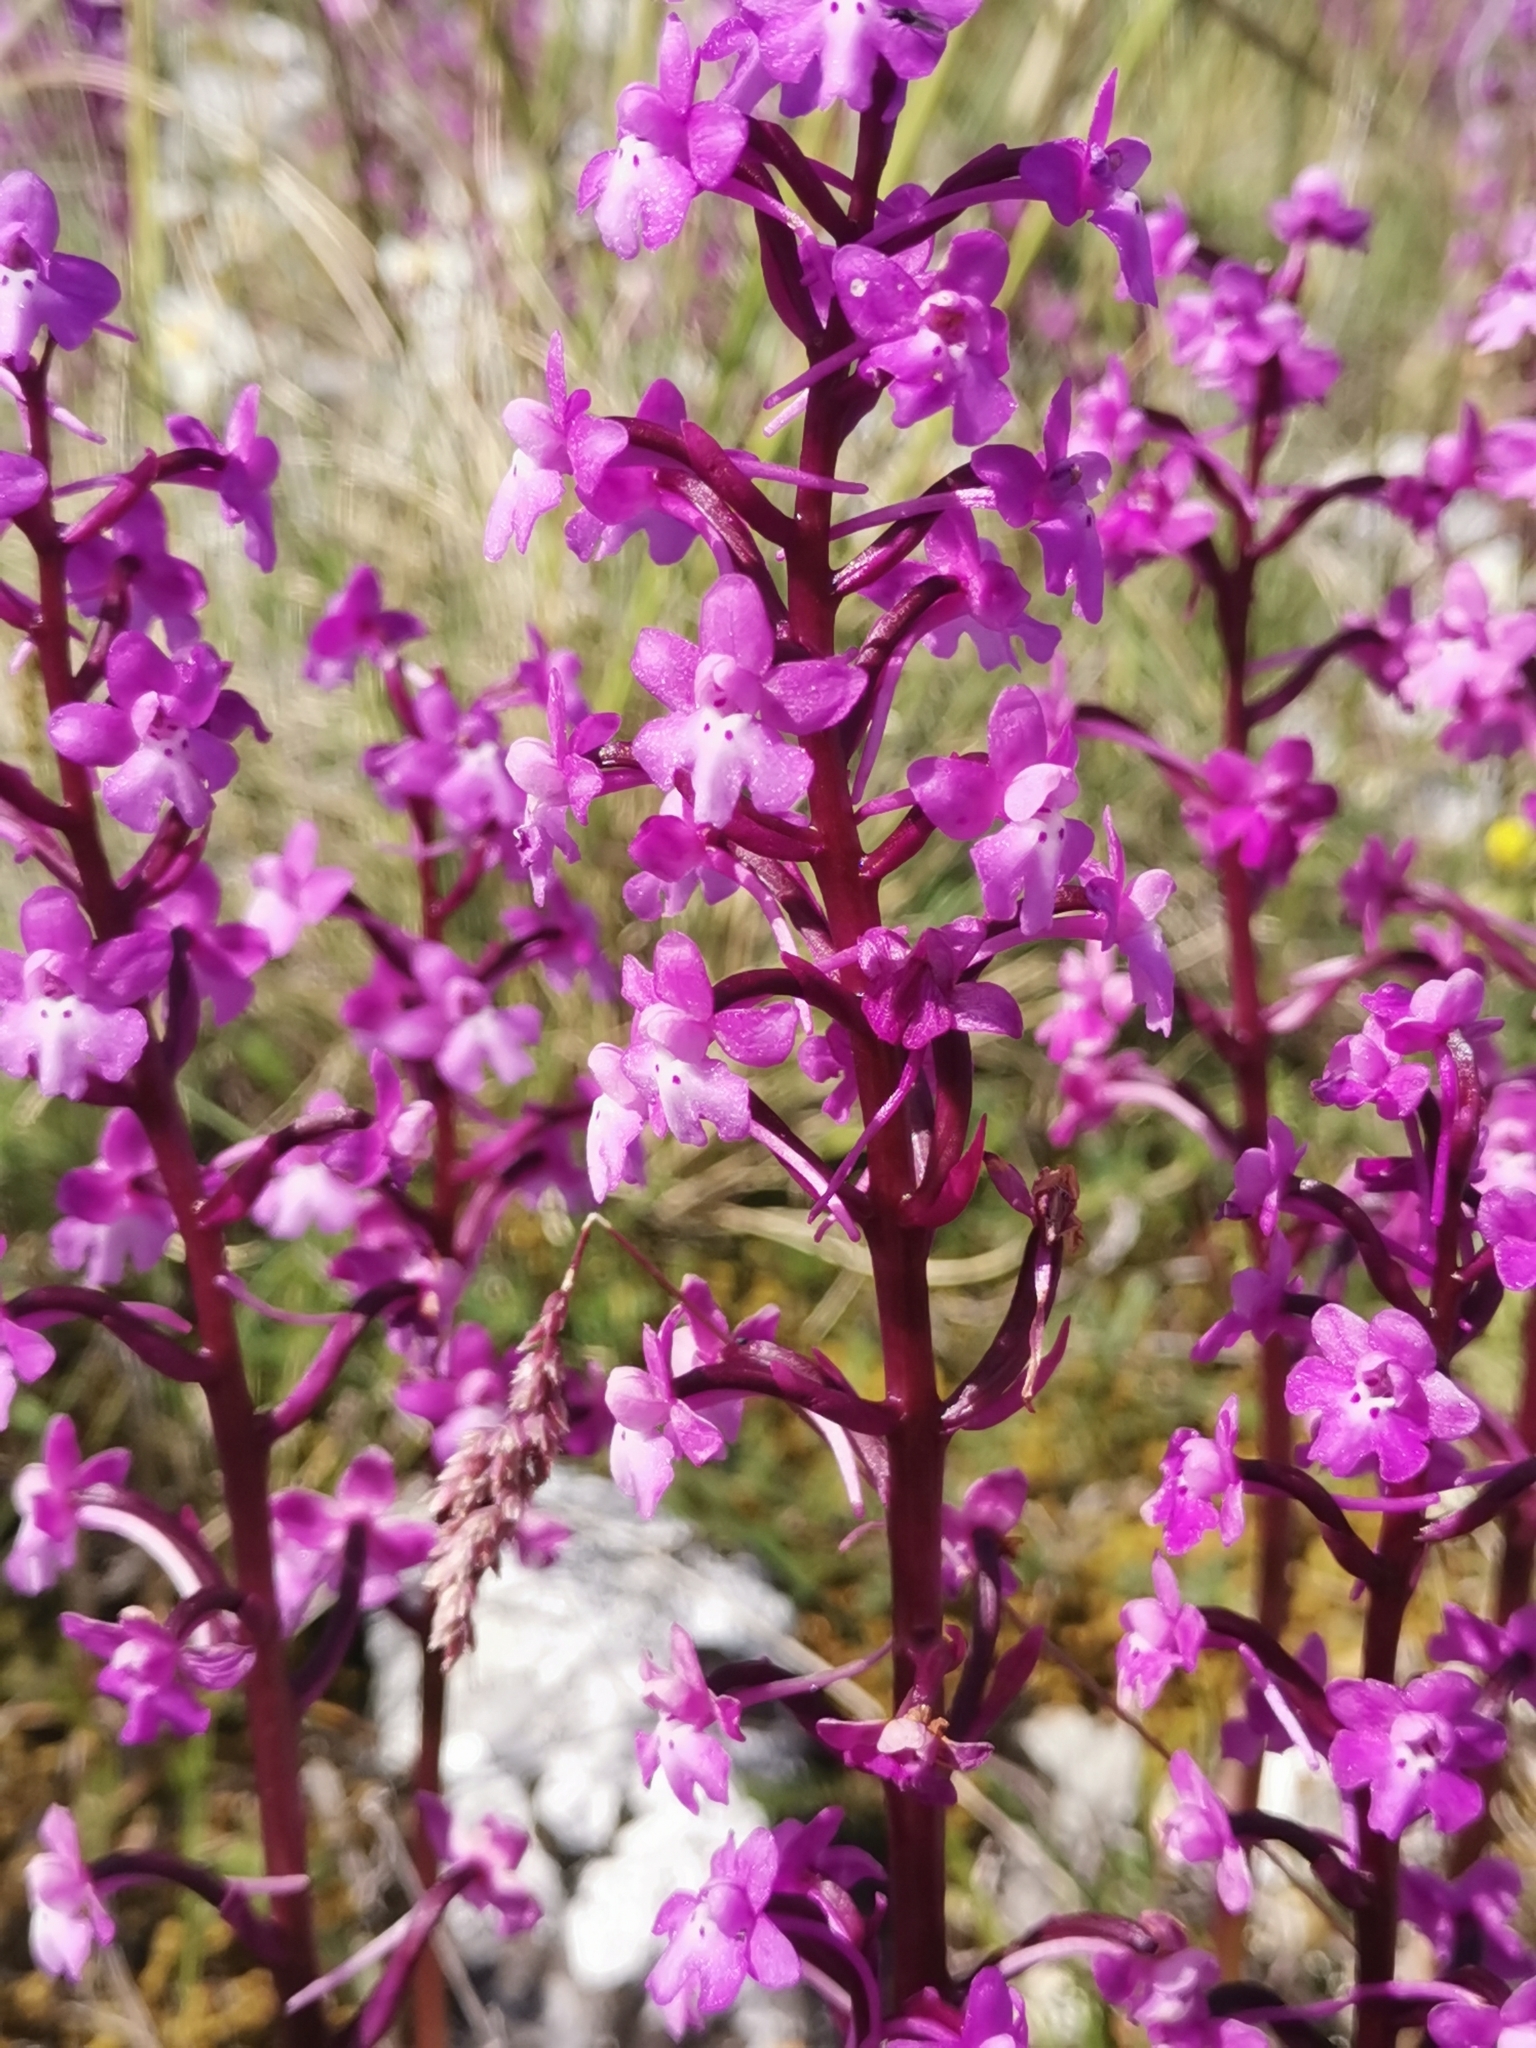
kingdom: Plantae
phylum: Tracheophyta
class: Liliopsida
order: Asparagales
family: Orchidaceae
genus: Orchis
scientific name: Orchis quadripunctata
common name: Four-spotted orchid
